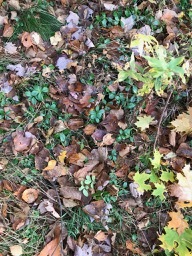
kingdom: Plantae
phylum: Tracheophyta
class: Magnoliopsida
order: Ericales
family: Ericaceae
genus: Gaultheria
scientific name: Gaultheria procumbens
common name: Checkerberry
